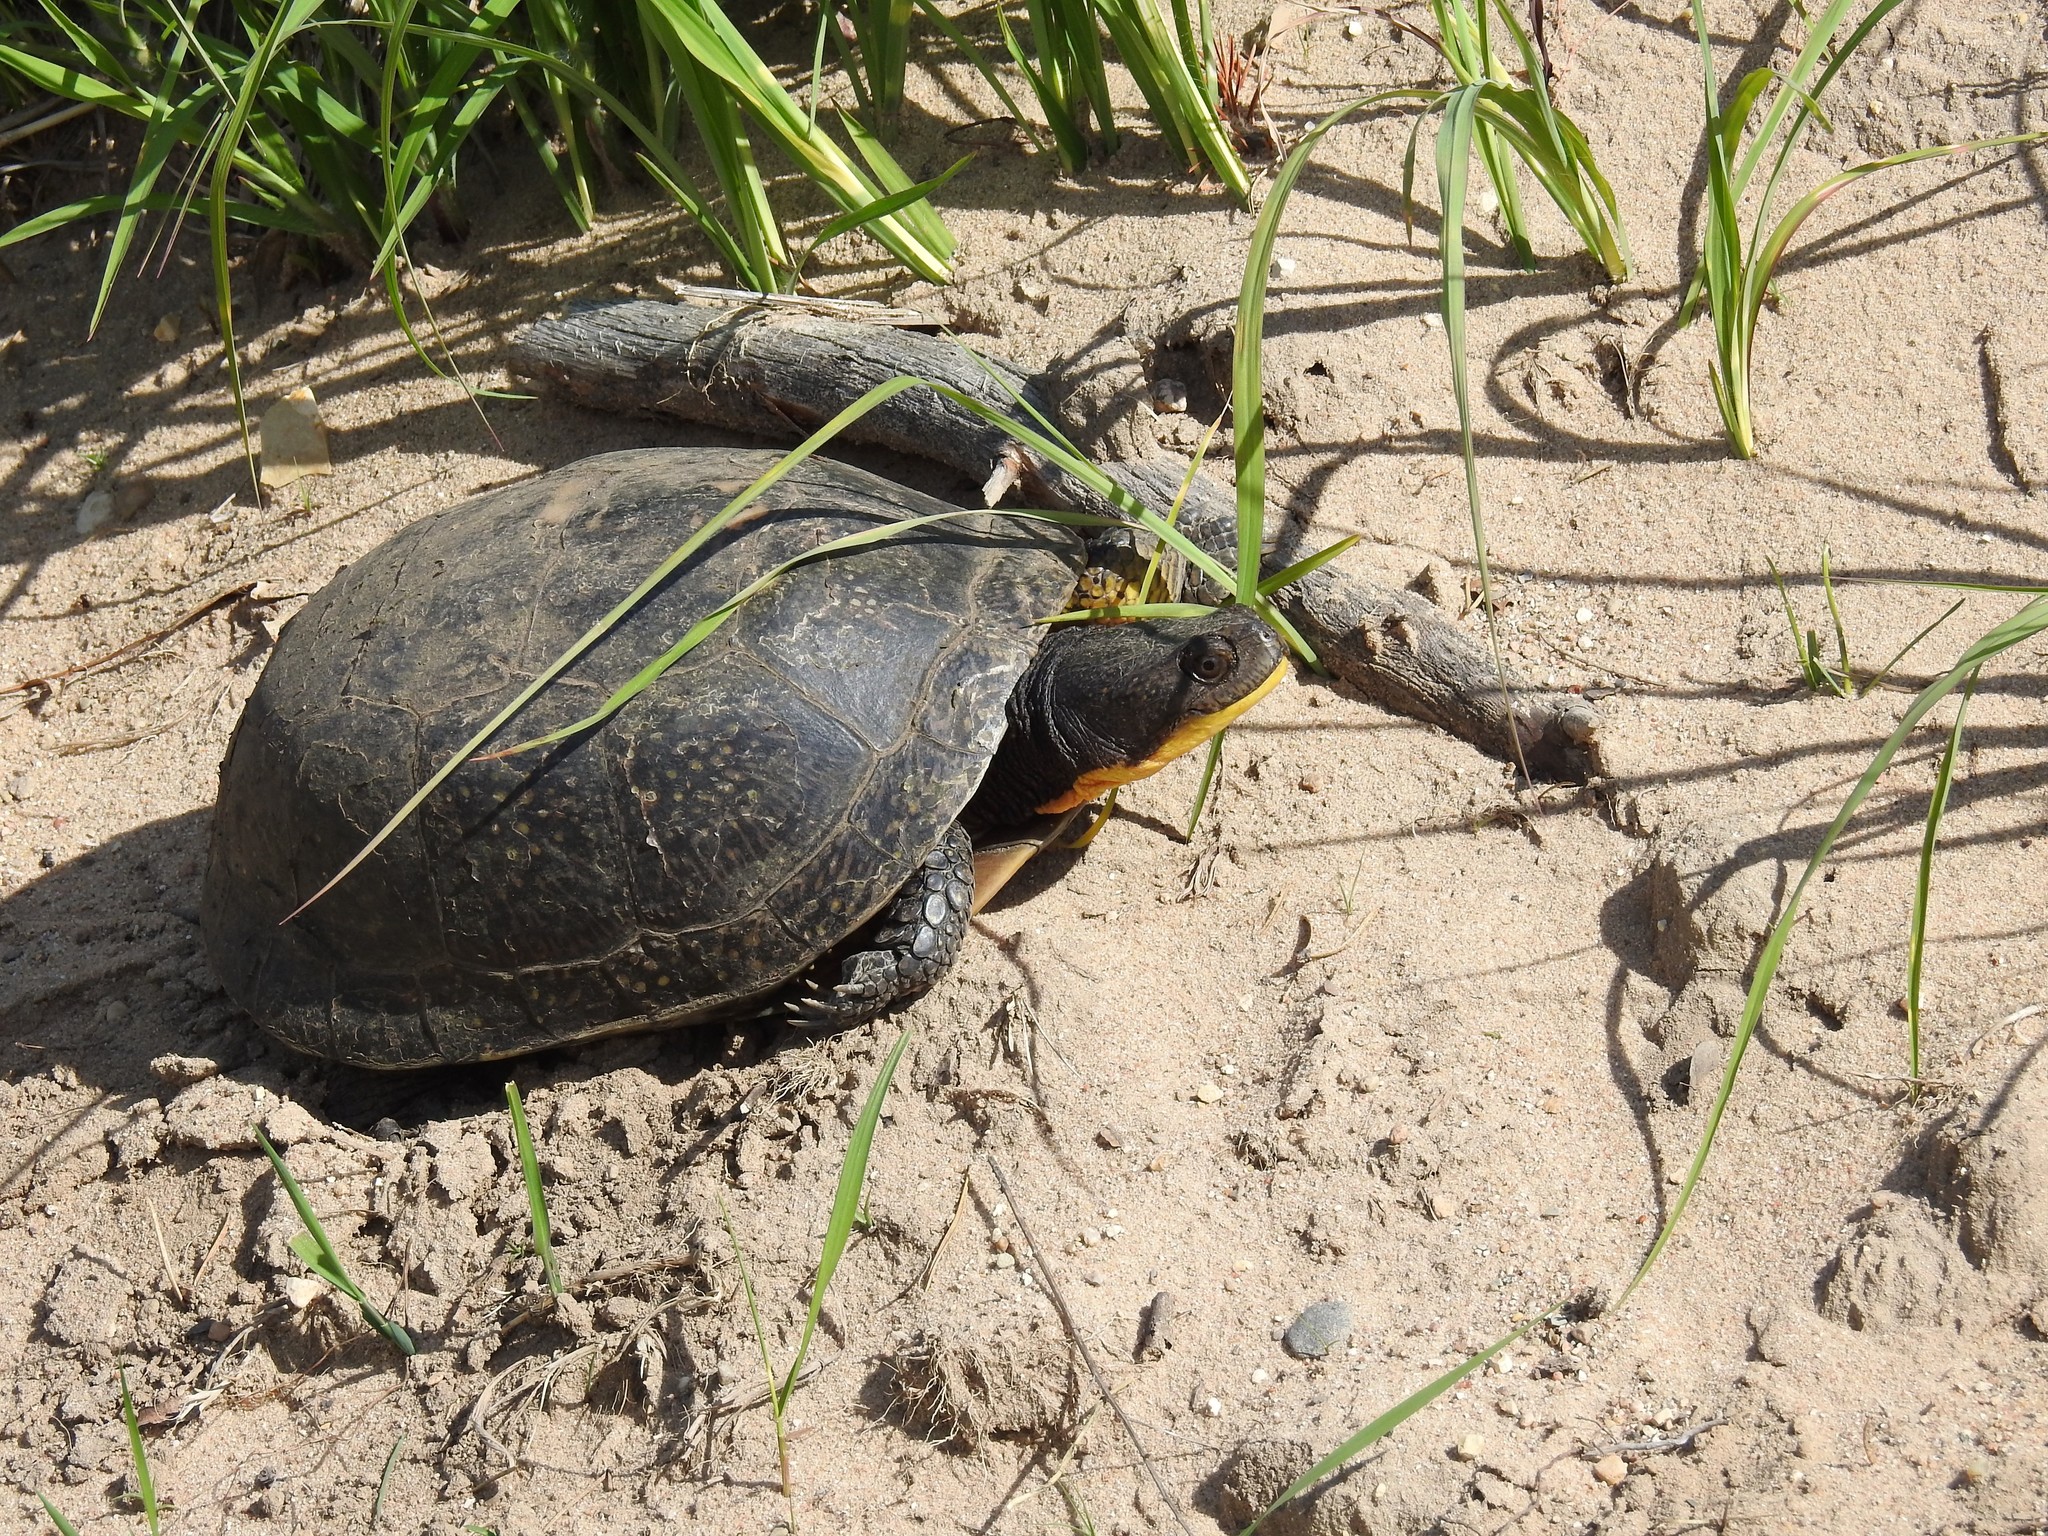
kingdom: Animalia
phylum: Chordata
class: Testudines
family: Emydidae
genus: Emys
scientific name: Emys blandingii
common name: Blanding's turtle
